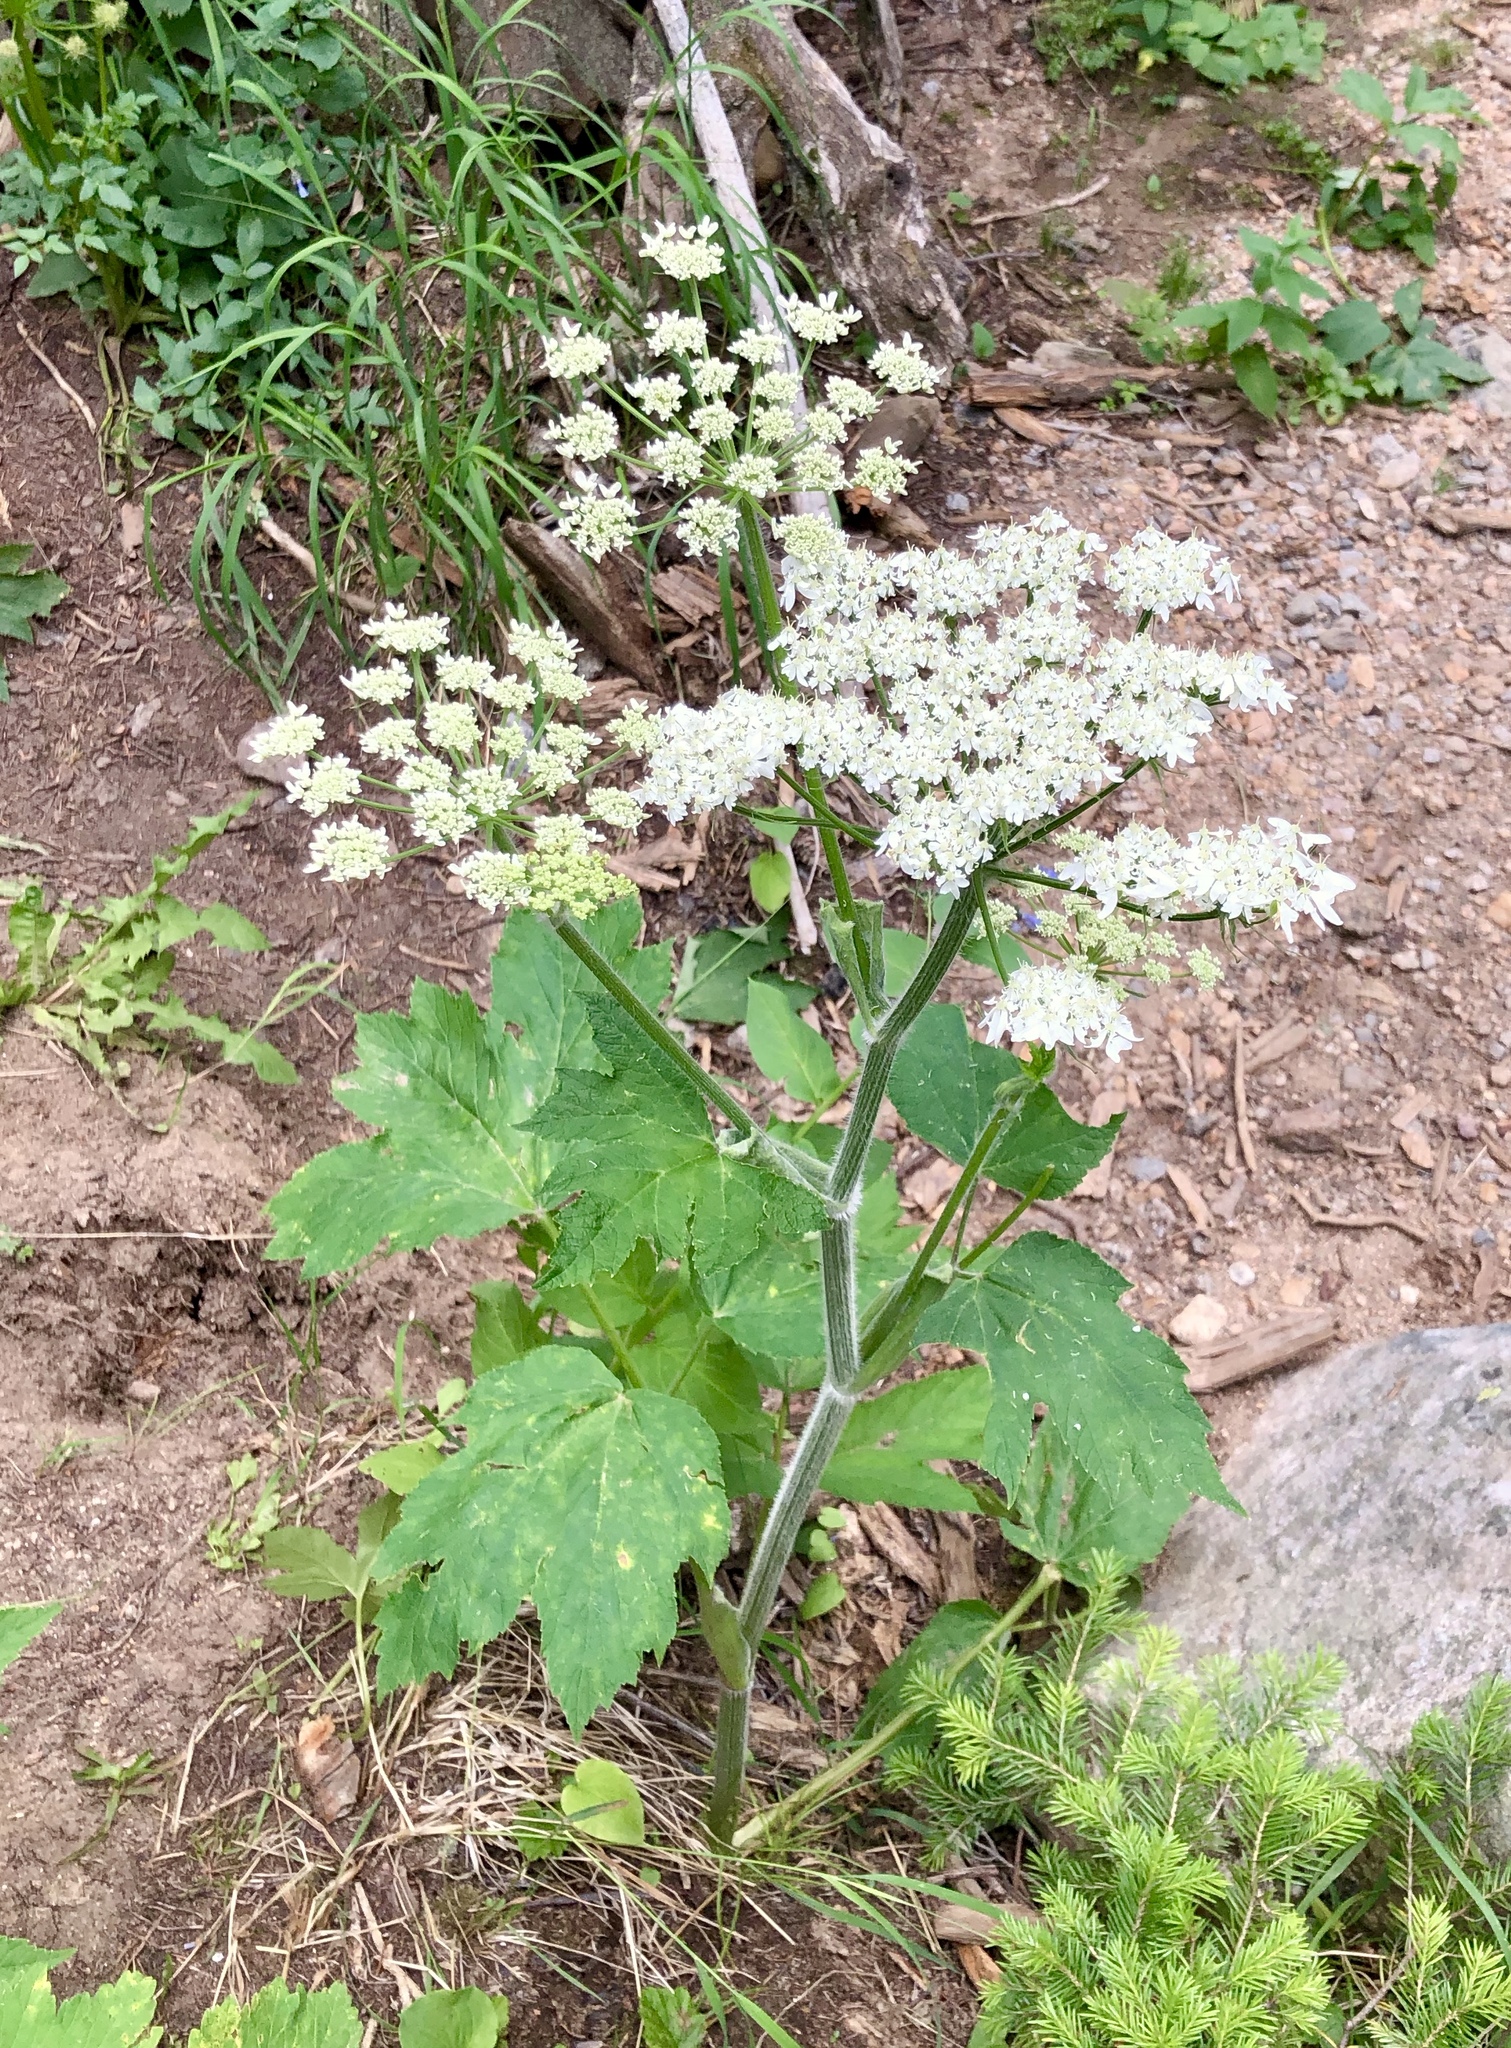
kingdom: Plantae
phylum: Tracheophyta
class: Magnoliopsida
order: Apiales
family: Apiaceae
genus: Heracleum
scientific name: Heracleum maximum
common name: American cow parsnip
